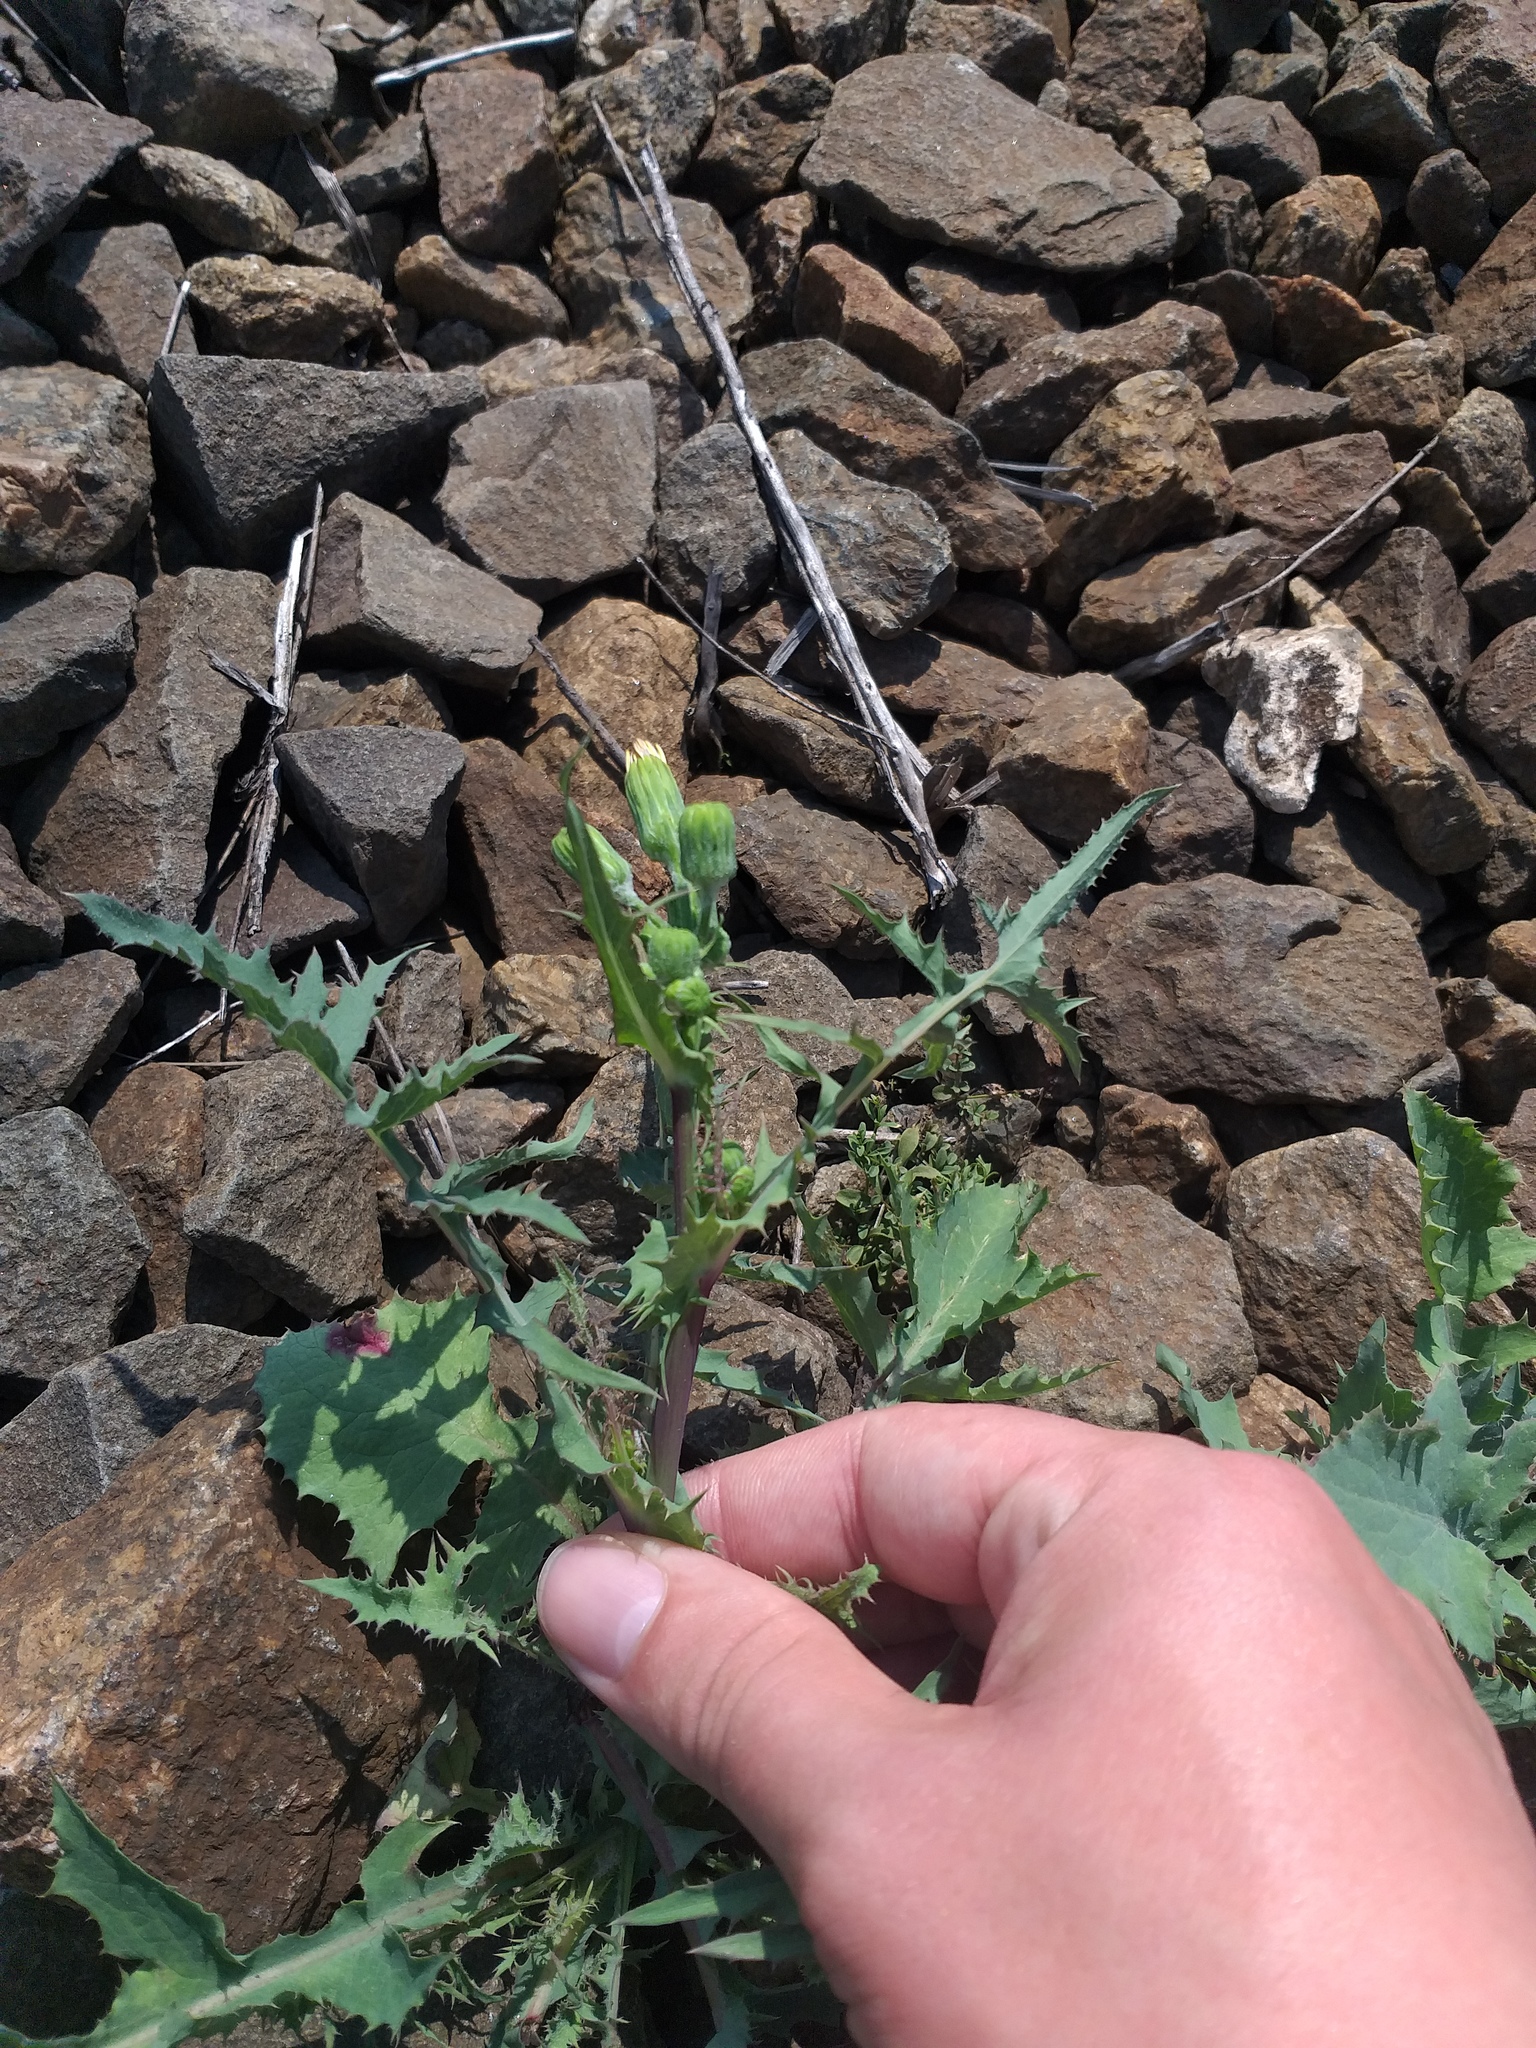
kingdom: Plantae
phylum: Tracheophyta
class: Magnoliopsida
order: Asterales
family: Asteraceae
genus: Sonchus
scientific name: Sonchus oleraceus
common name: Common sowthistle
